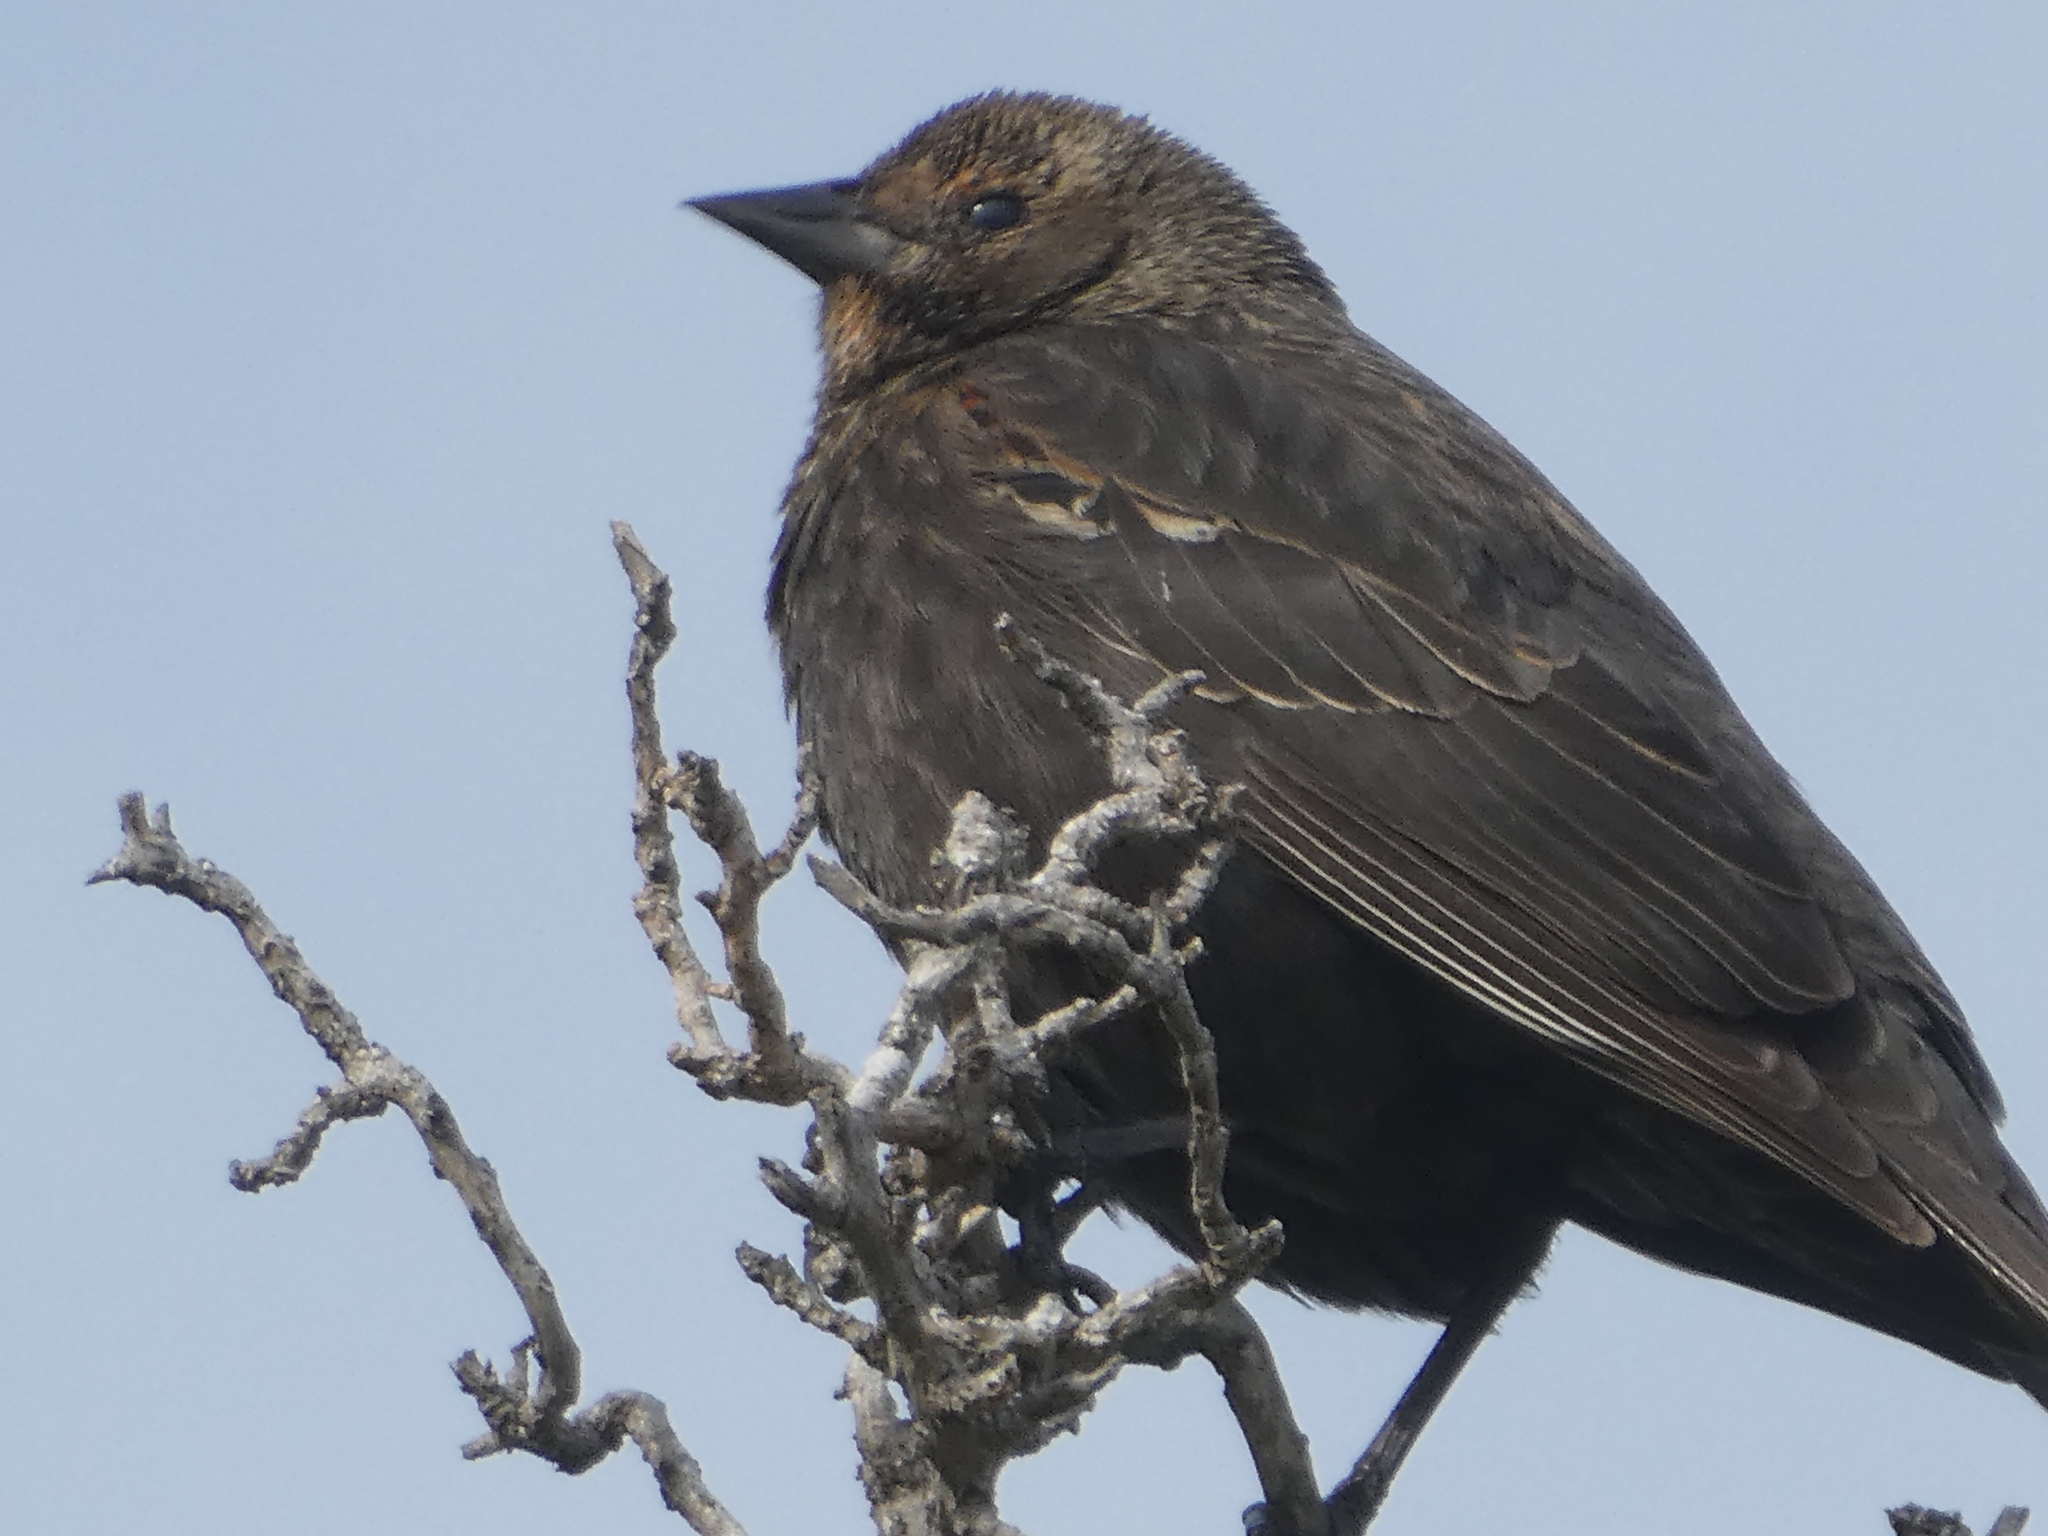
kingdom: Animalia
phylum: Chordata
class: Aves
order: Passeriformes
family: Icteridae
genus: Agelaius
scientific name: Agelaius tricolor
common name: Tricolored blackbird
